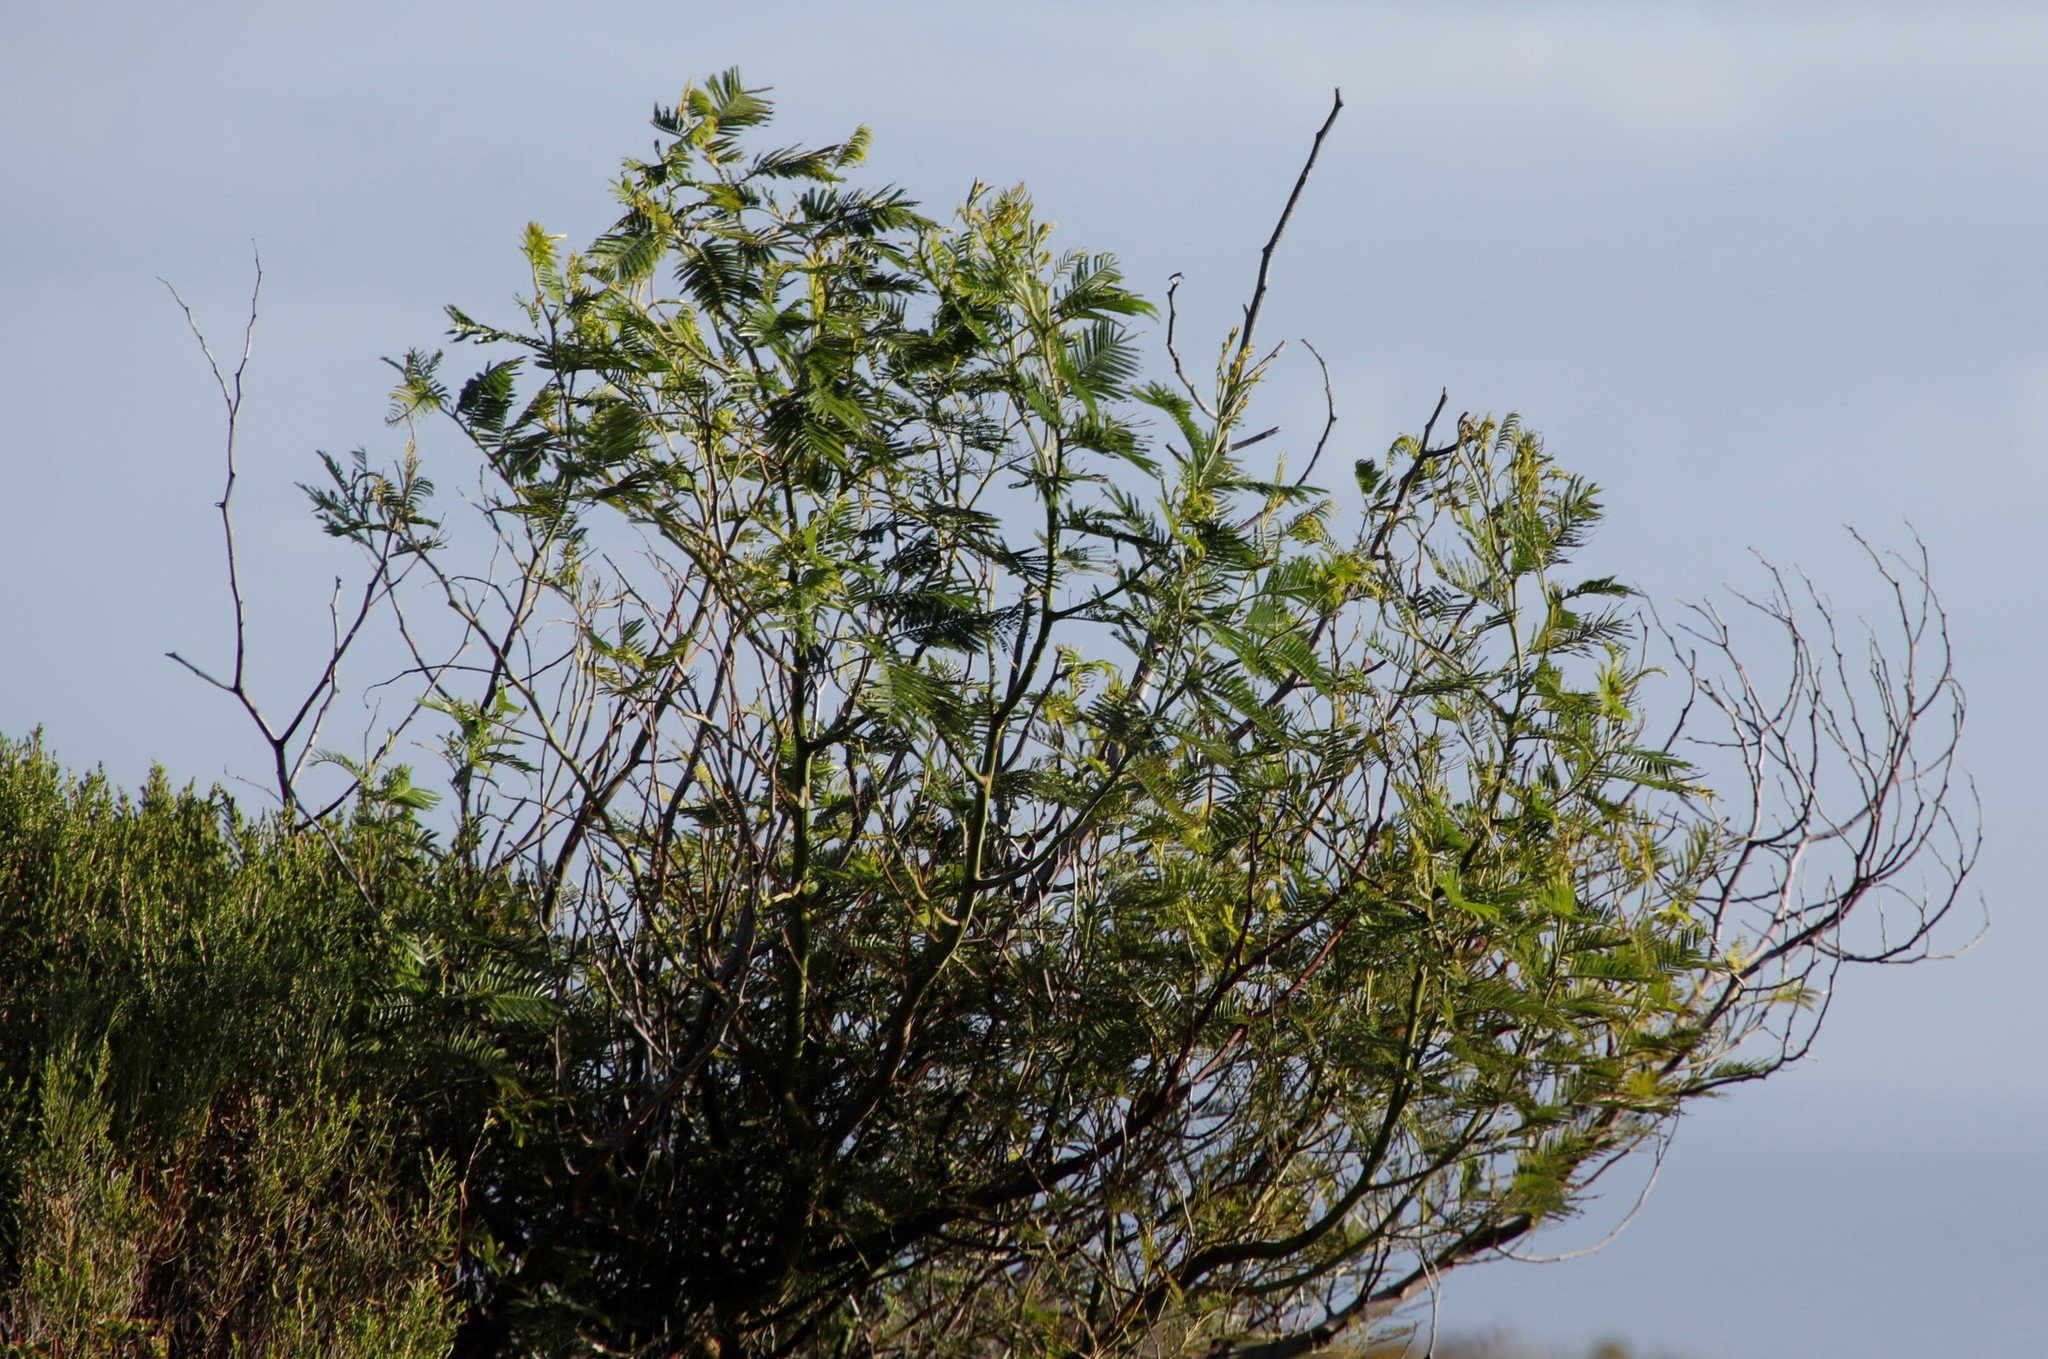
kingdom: Plantae
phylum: Tracheophyta
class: Magnoliopsida
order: Fabales
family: Fabaceae
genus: Acacia
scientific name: Acacia mearnsii
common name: Black wattle
